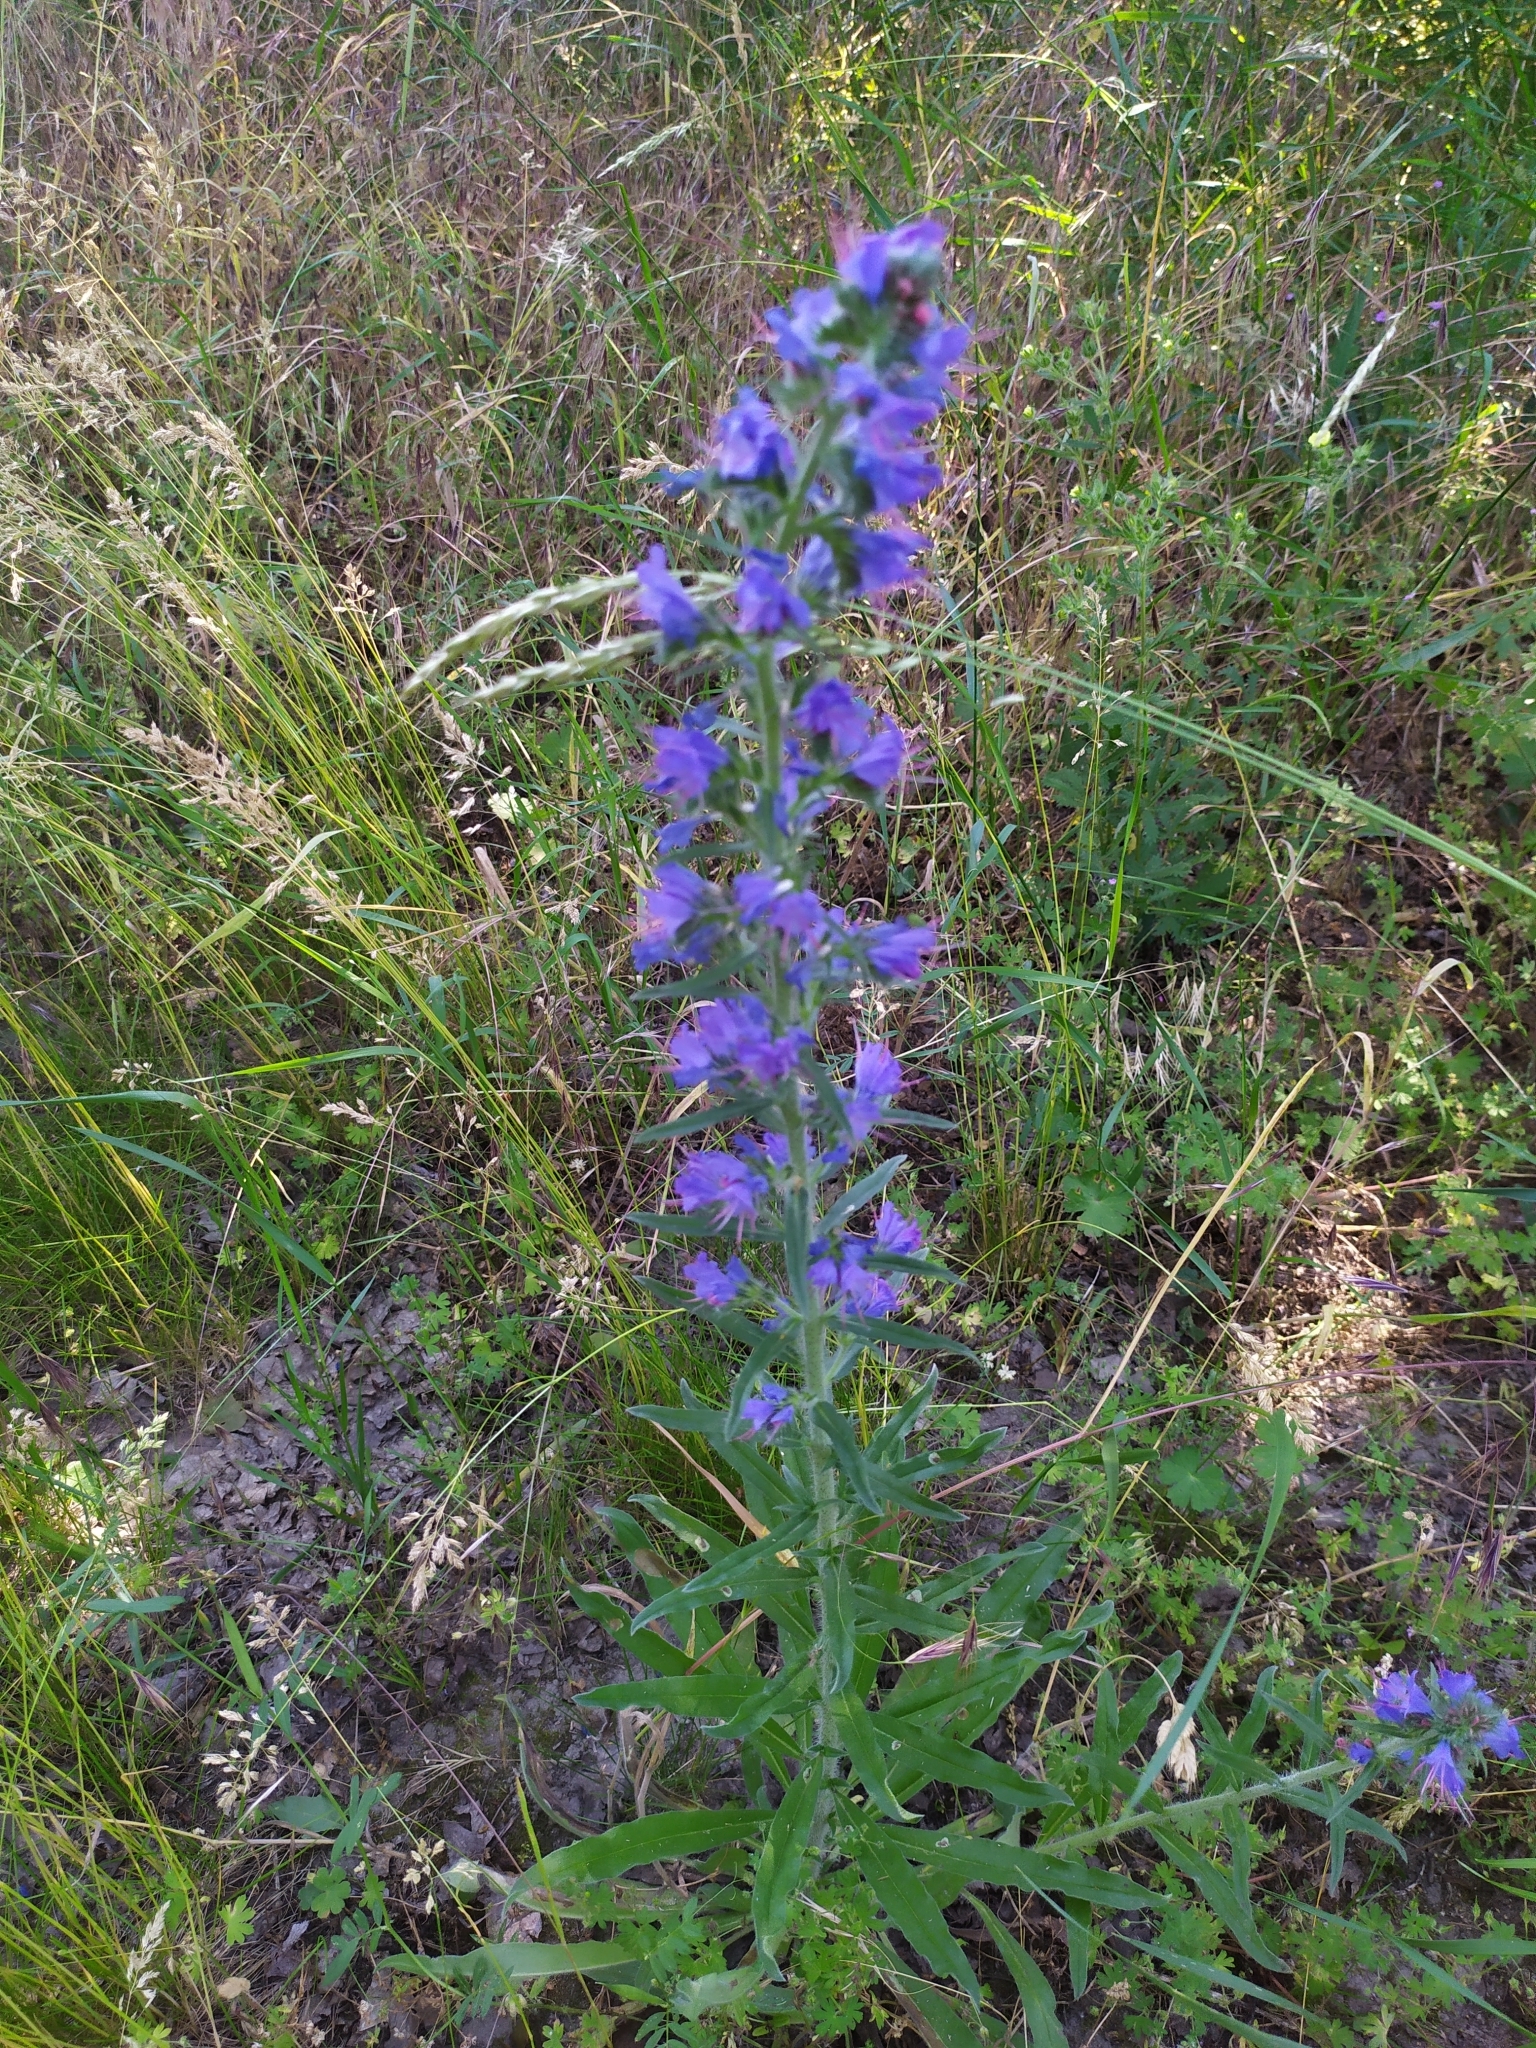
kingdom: Plantae
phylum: Tracheophyta
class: Magnoliopsida
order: Boraginales
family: Boraginaceae
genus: Echium
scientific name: Echium vulgare
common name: Common viper's bugloss
